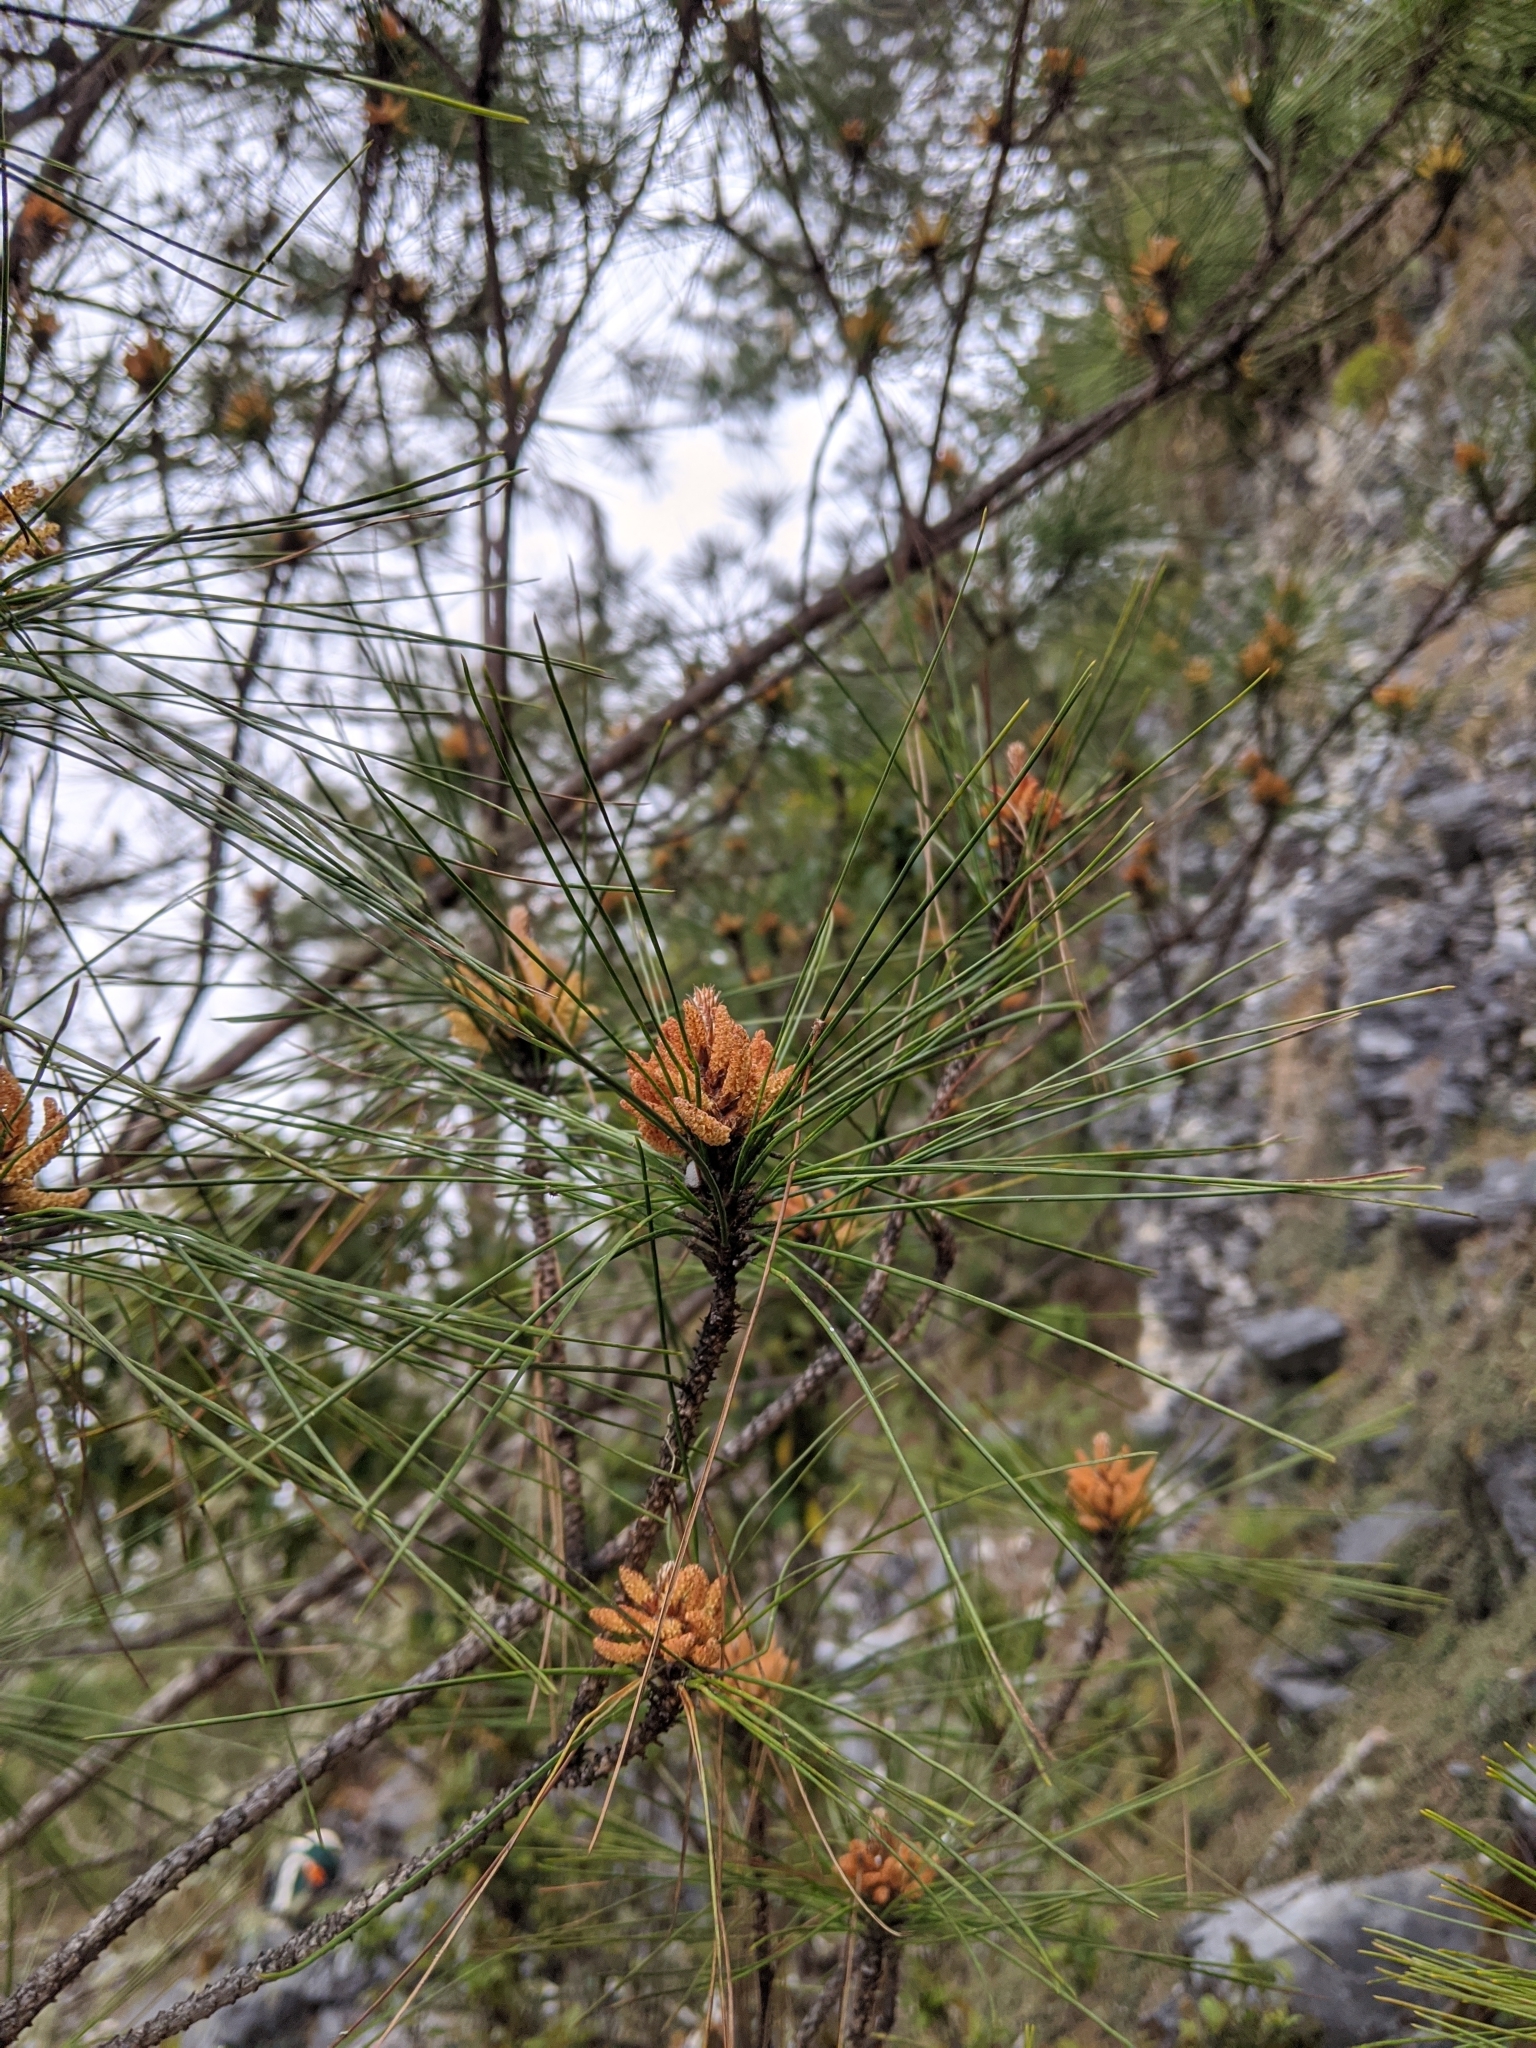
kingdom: Plantae
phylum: Tracheophyta
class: Pinopsida
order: Pinales
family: Pinaceae
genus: Pinus
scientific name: Pinus taiwanensis
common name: Formosa pine
